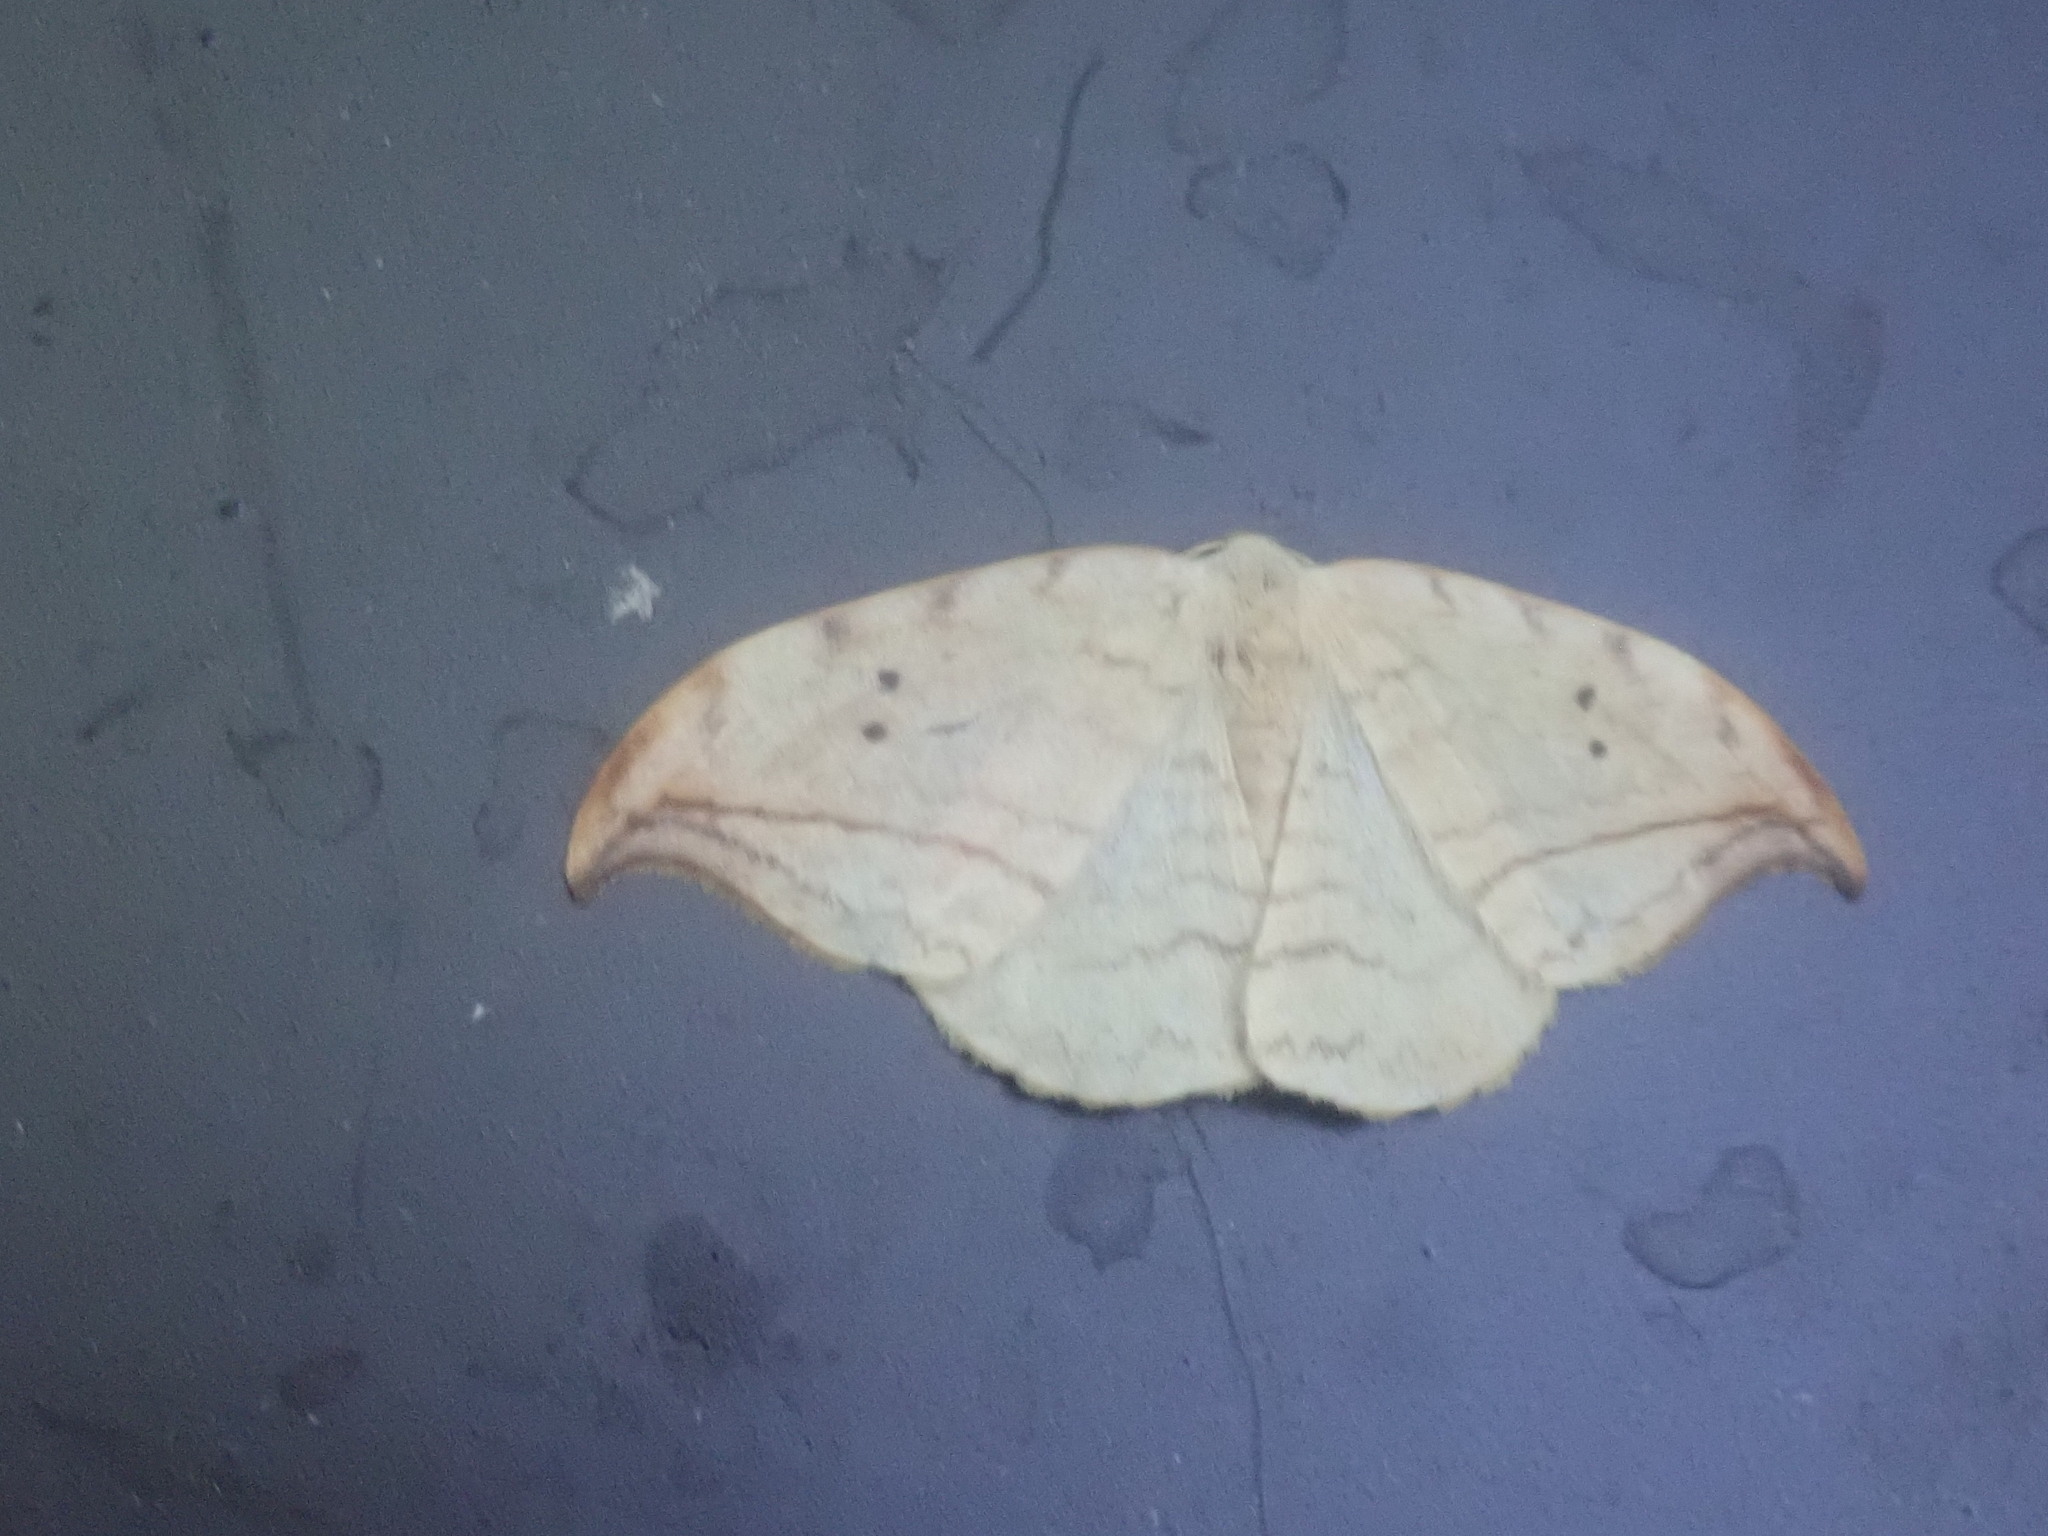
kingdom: Animalia
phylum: Arthropoda
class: Insecta
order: Lepidoptera
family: Drepanidae
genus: Drepana
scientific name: Drepana arcuata
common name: Arched hooktip moth
